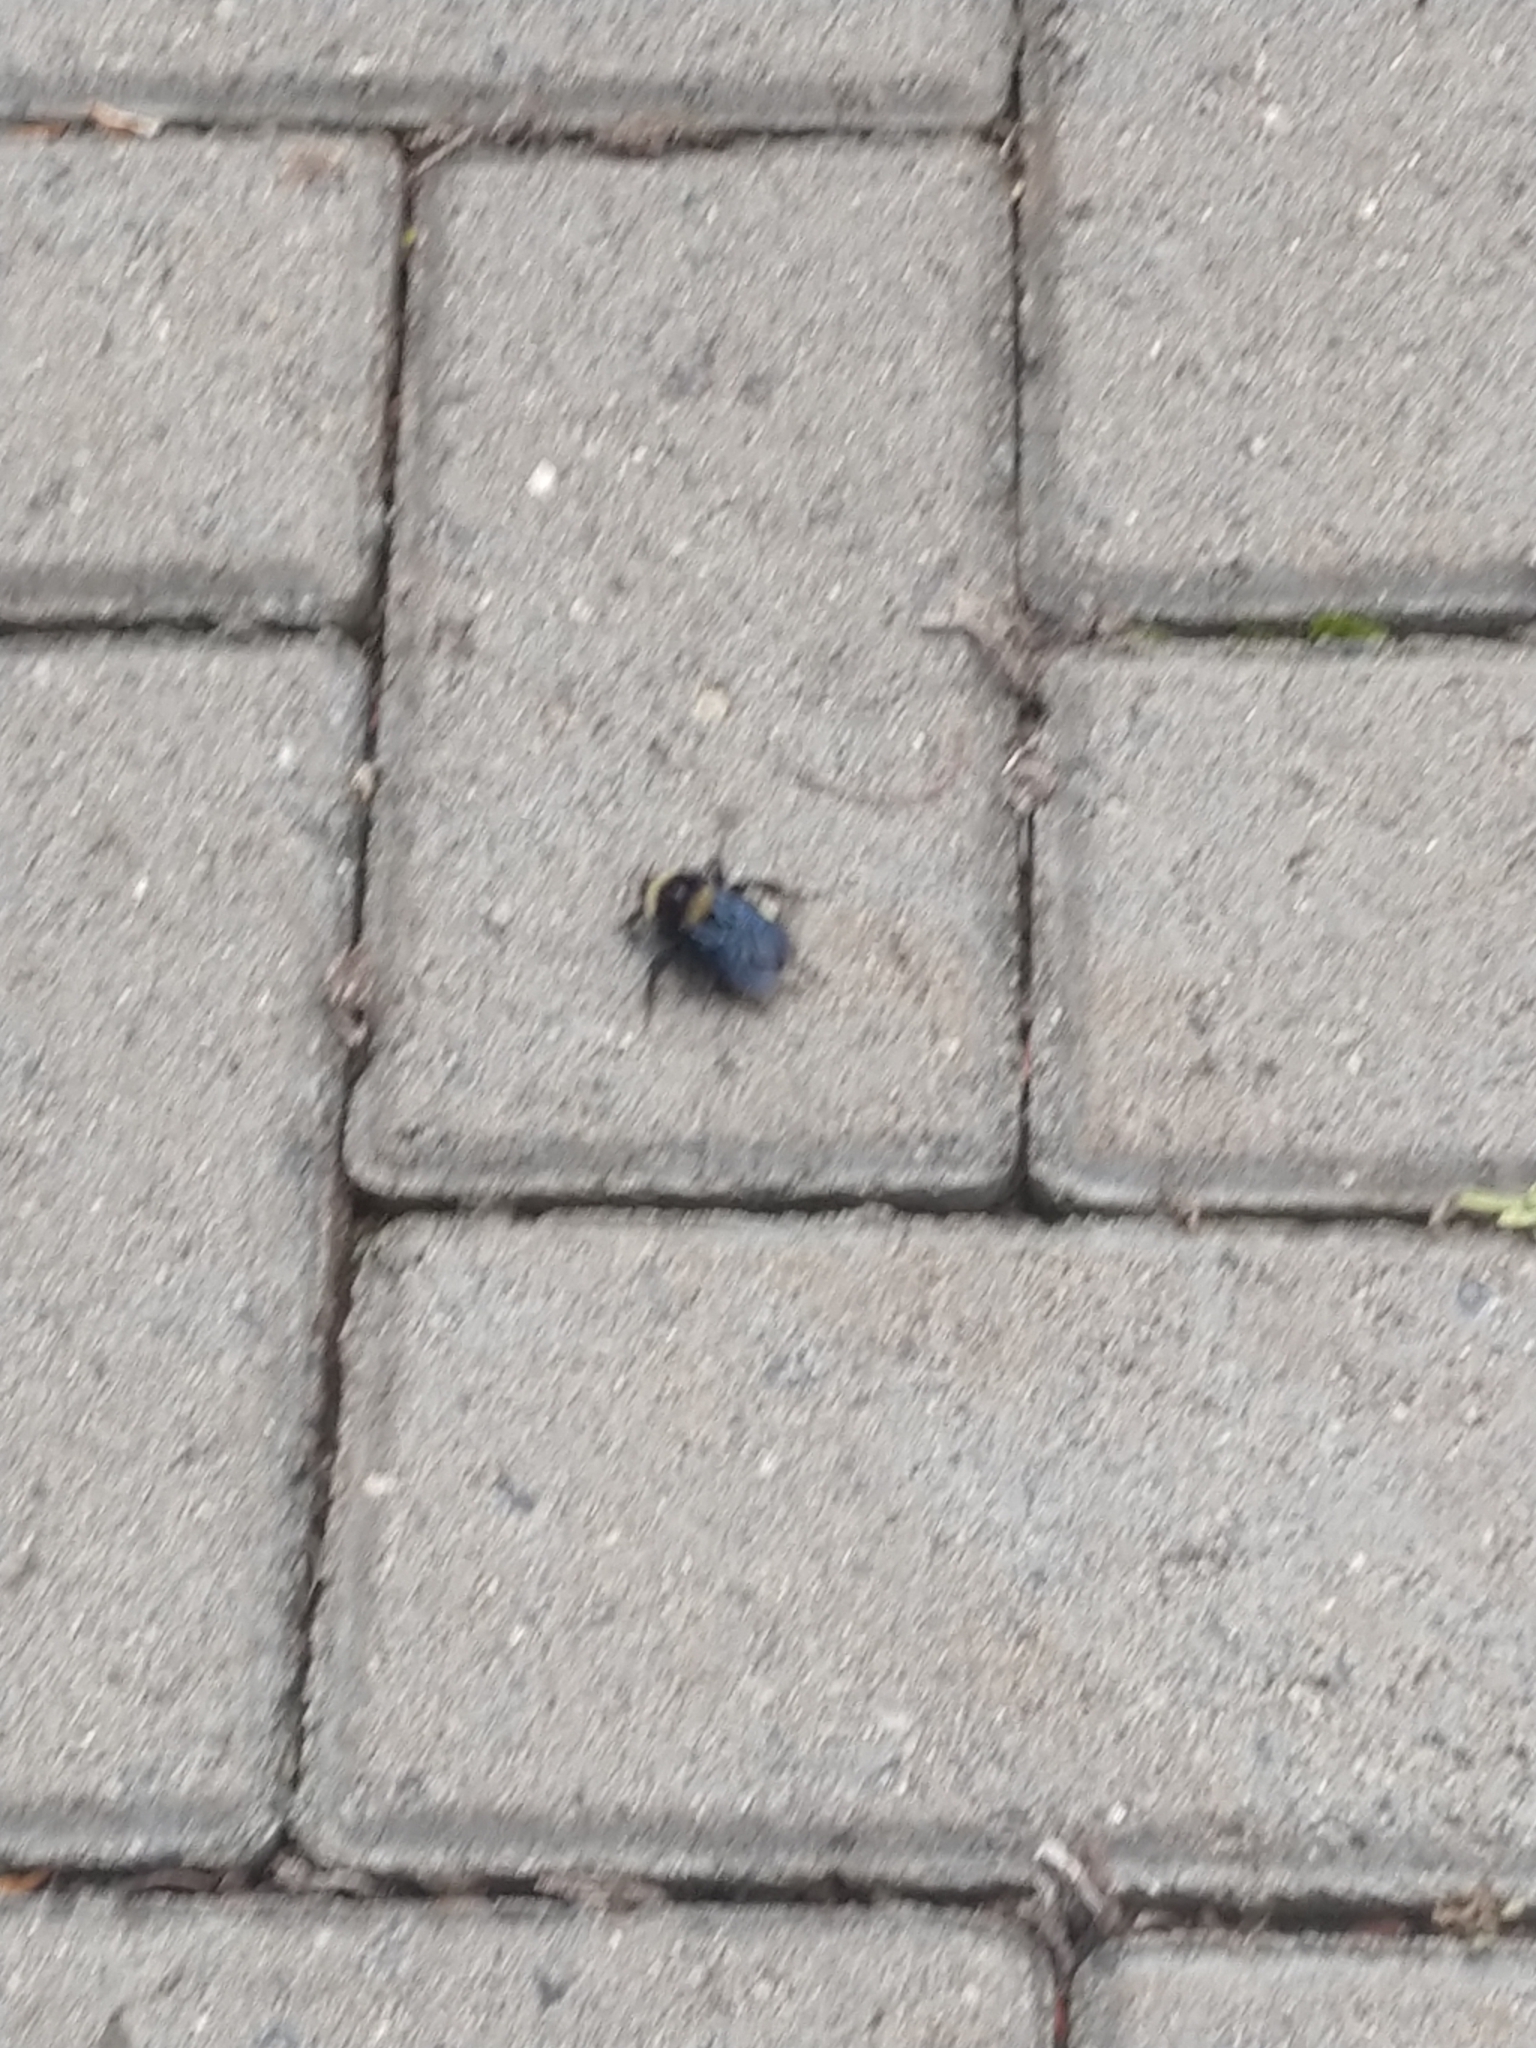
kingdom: Animalia
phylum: Arthropoda
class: Insecta
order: Hymenoptera
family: Apidae
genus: Bombus
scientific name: Bombus pauloensis
